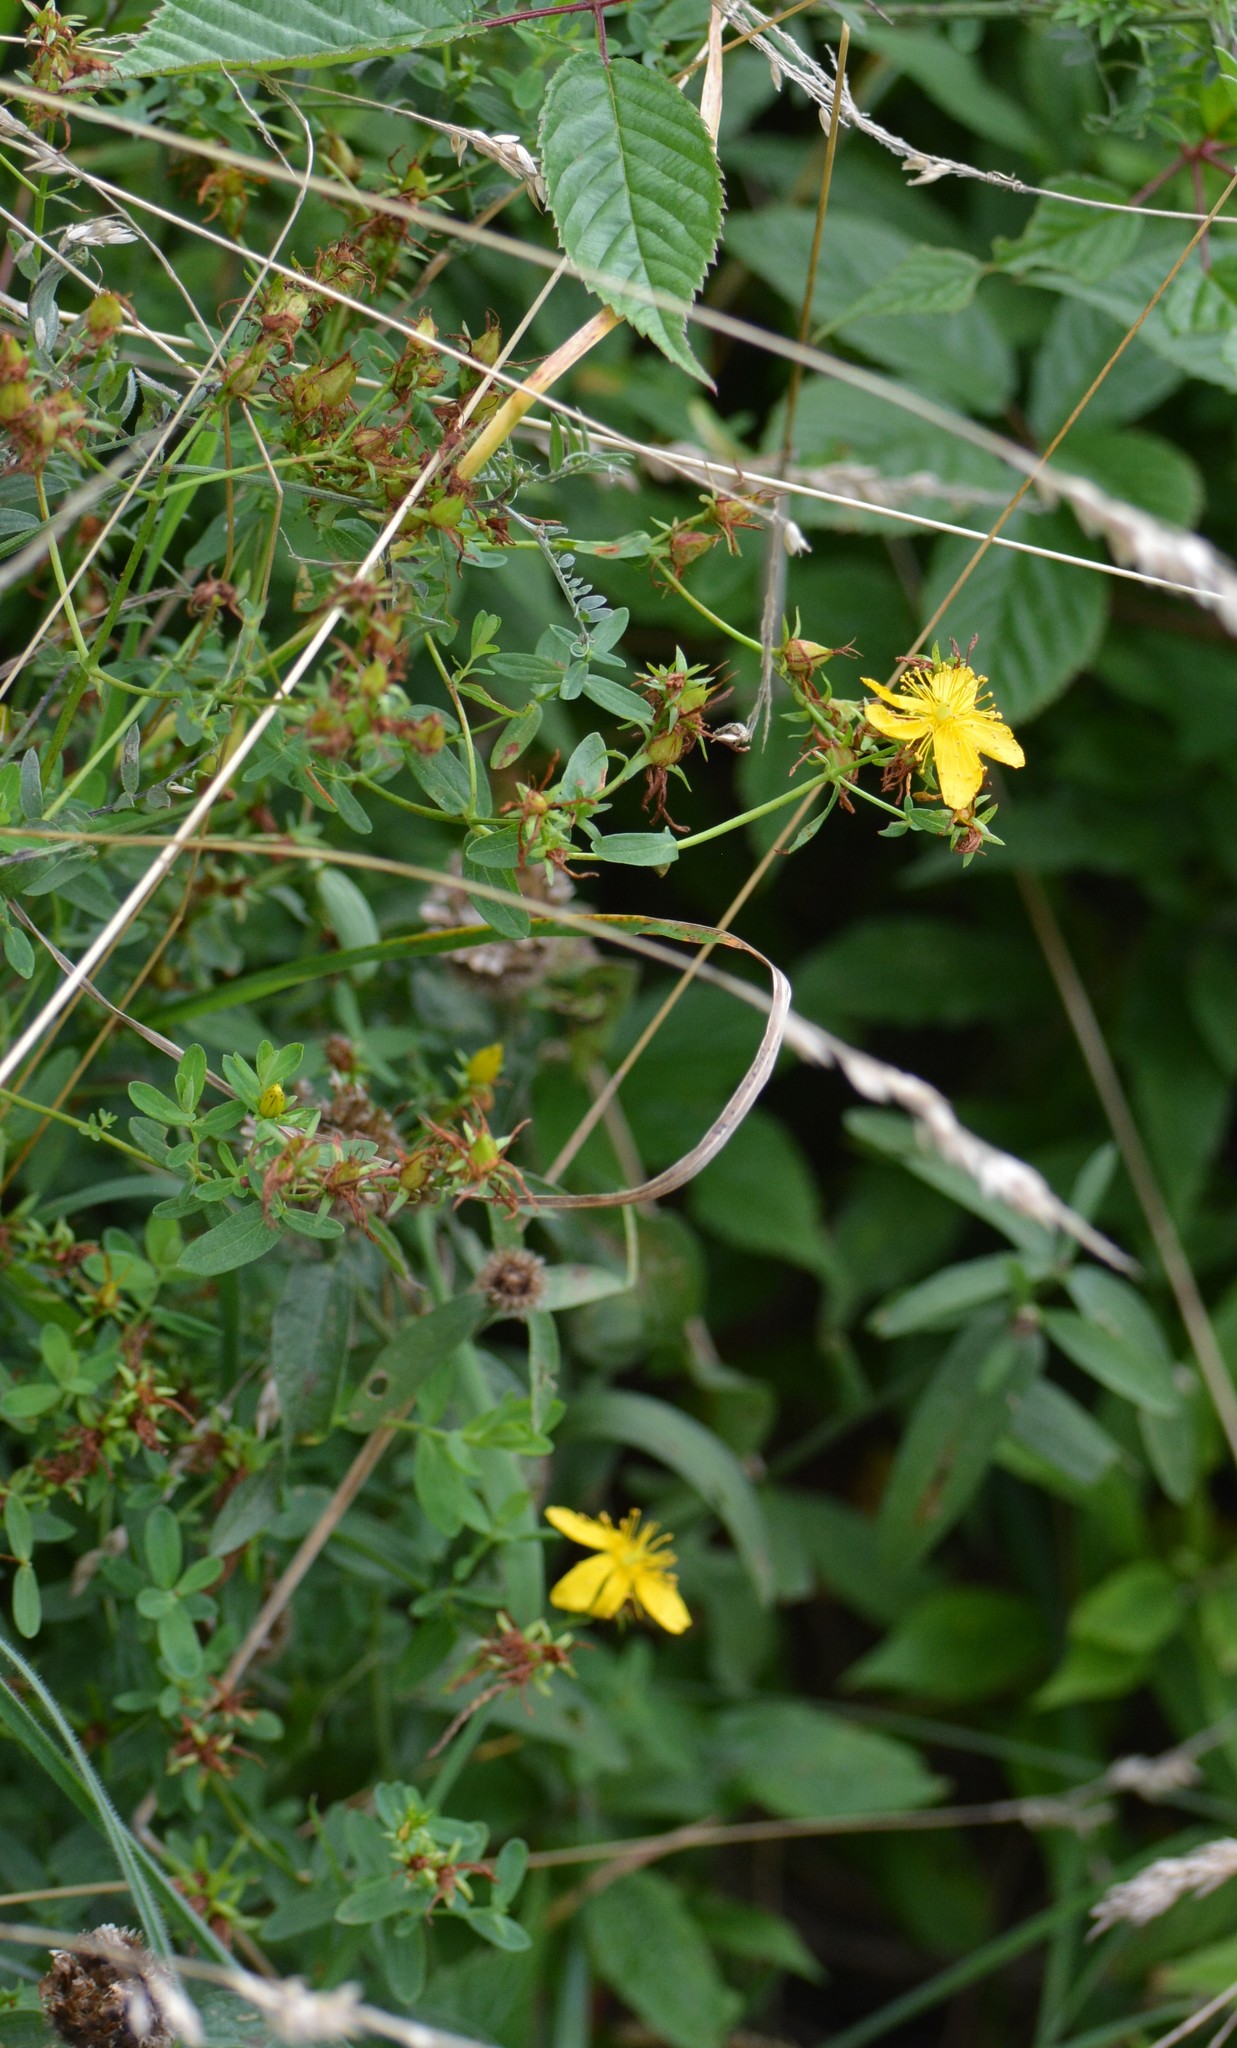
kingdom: Plantae
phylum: Tracheophyta
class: Magnoliopsida
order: Malpighiales
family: Hypericaceae
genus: Hypericum
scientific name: Hypericum perforatum
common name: Common st. johnswort
